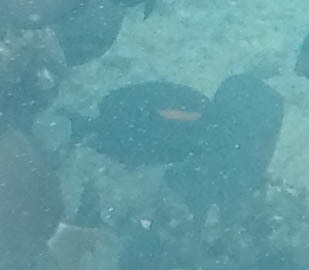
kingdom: Animalia
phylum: Chordata
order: Perciformes
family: Acanthuridae
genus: Acanthurus
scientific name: Acanthurus olivaceus
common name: Gendarme fish
